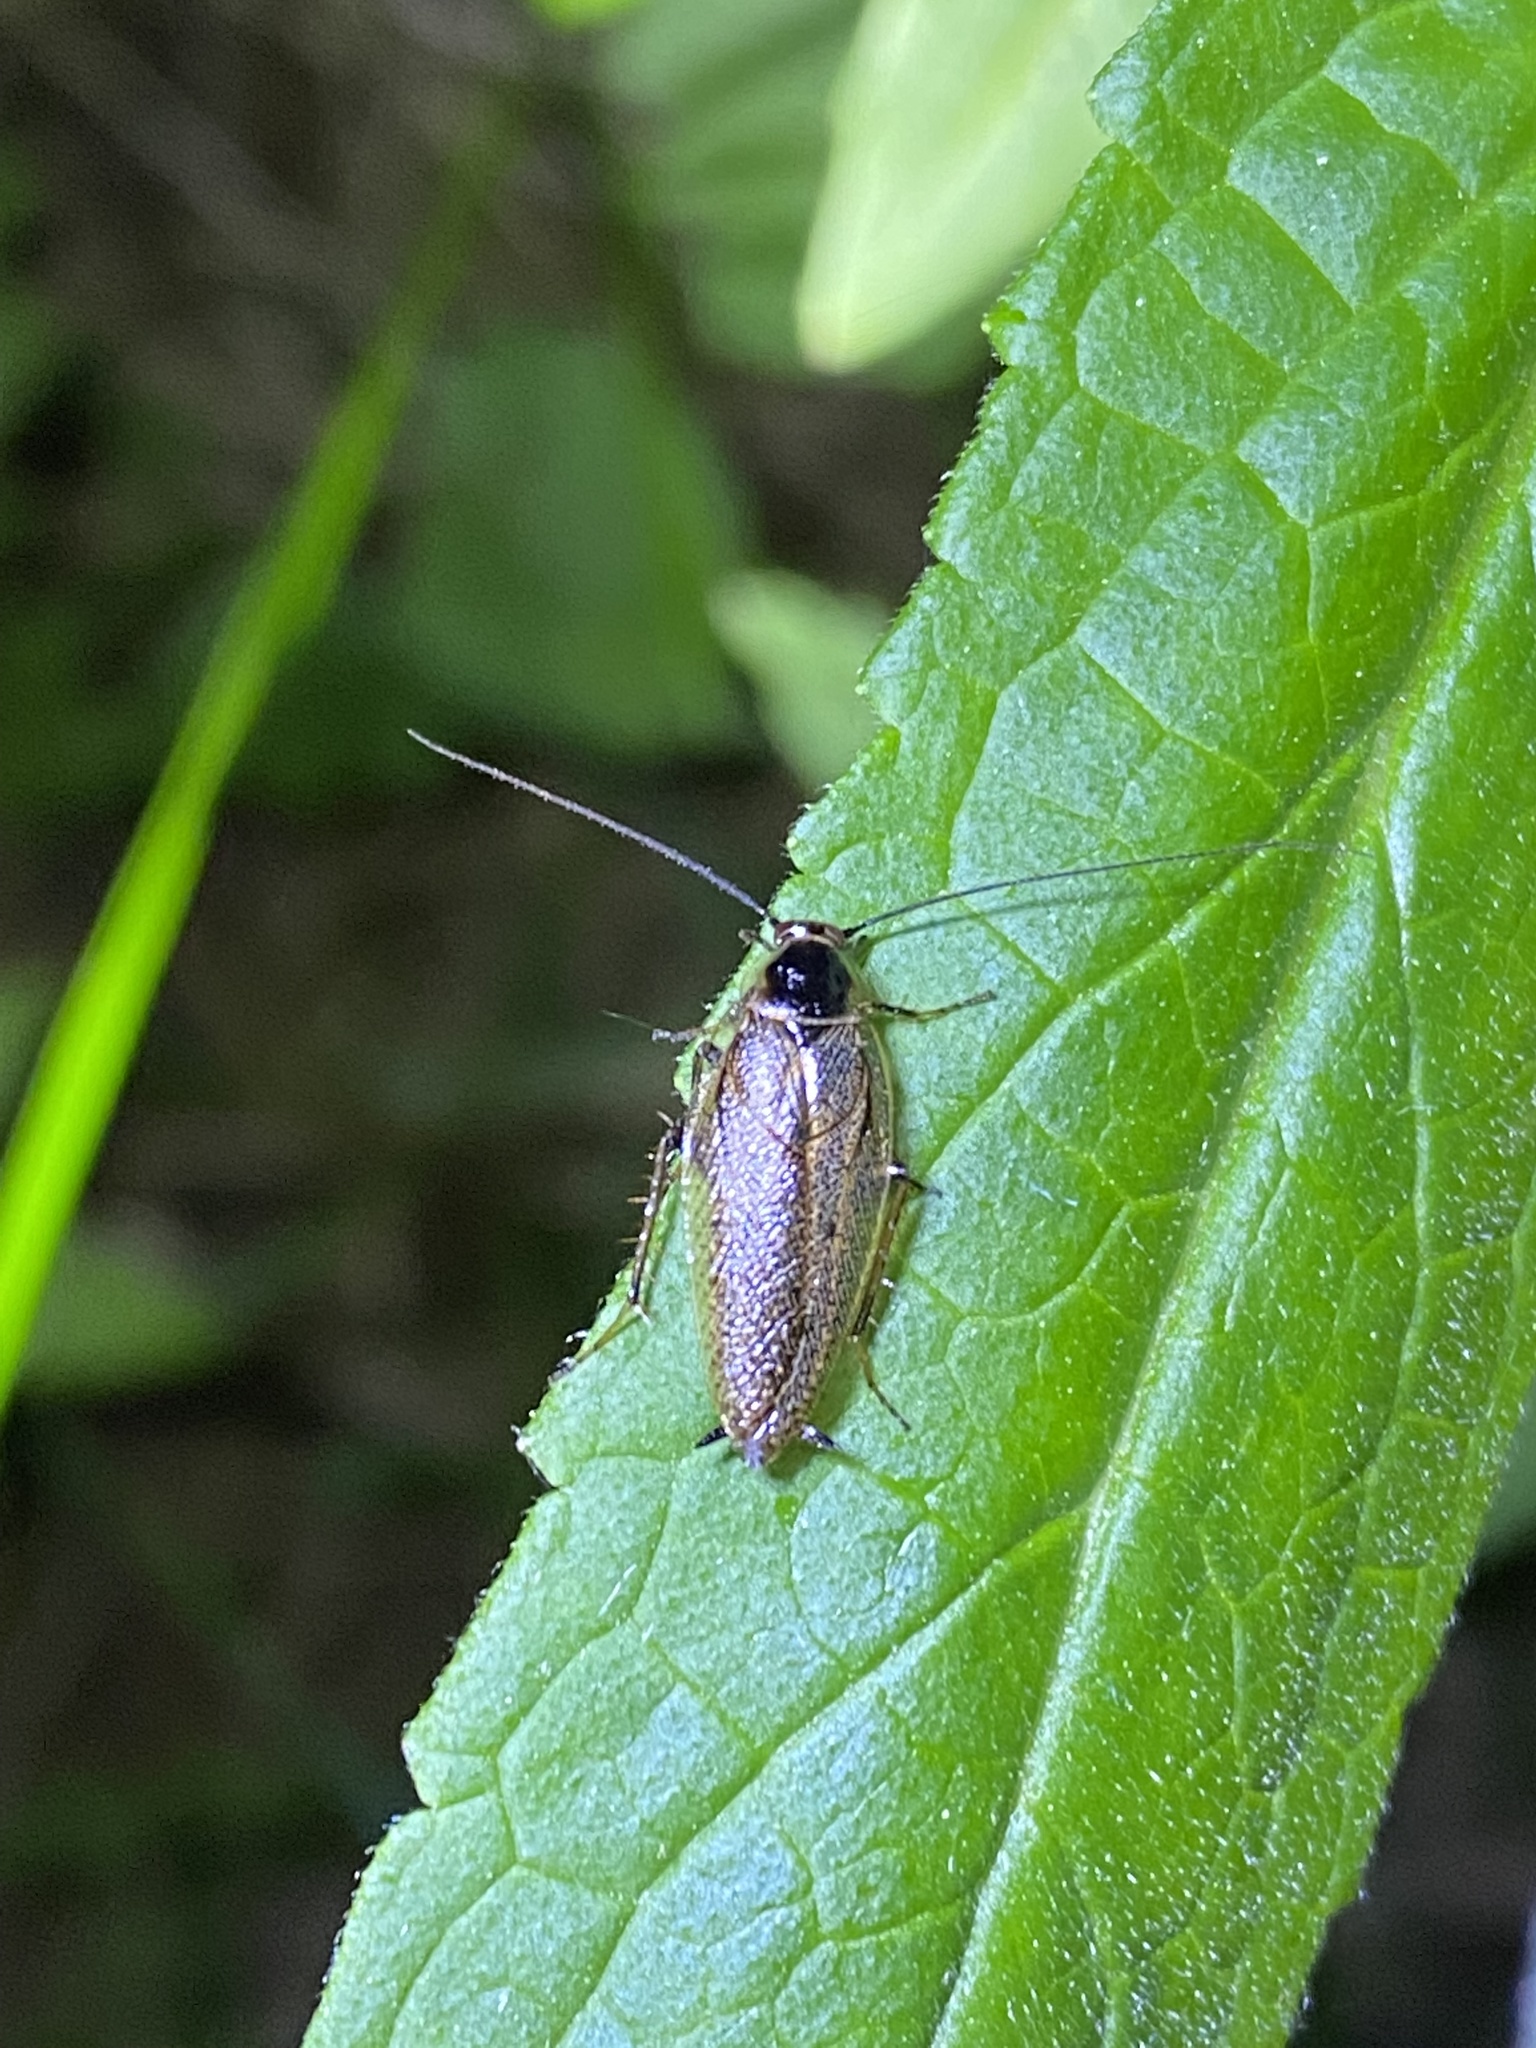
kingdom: Animalia
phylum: Arthropoda
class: Insecta
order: Blattodea
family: Ectobiidae
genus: Ectobius
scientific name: Ectobius lapponicus
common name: Dusky cockroach
